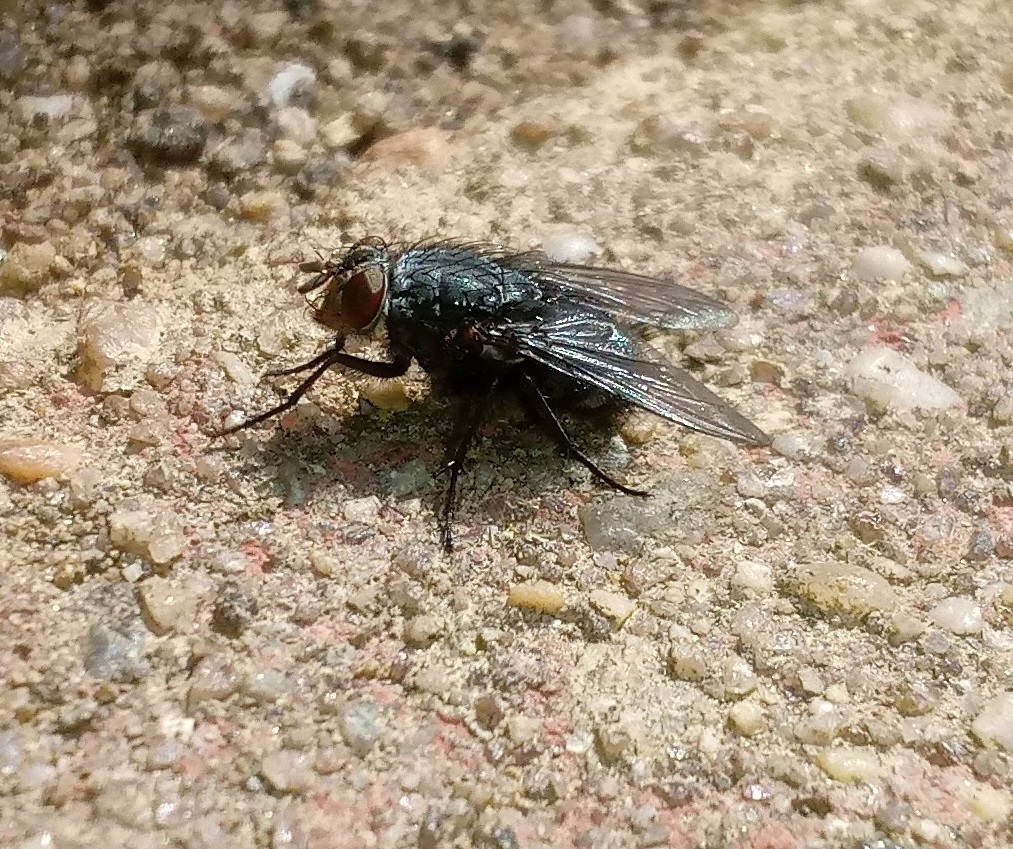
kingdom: Animalia
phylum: Arthropoda
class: Insecta
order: Diptera
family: Calliphoridae
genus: Calliphora
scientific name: Calliphora vicina
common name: Common blow flie
